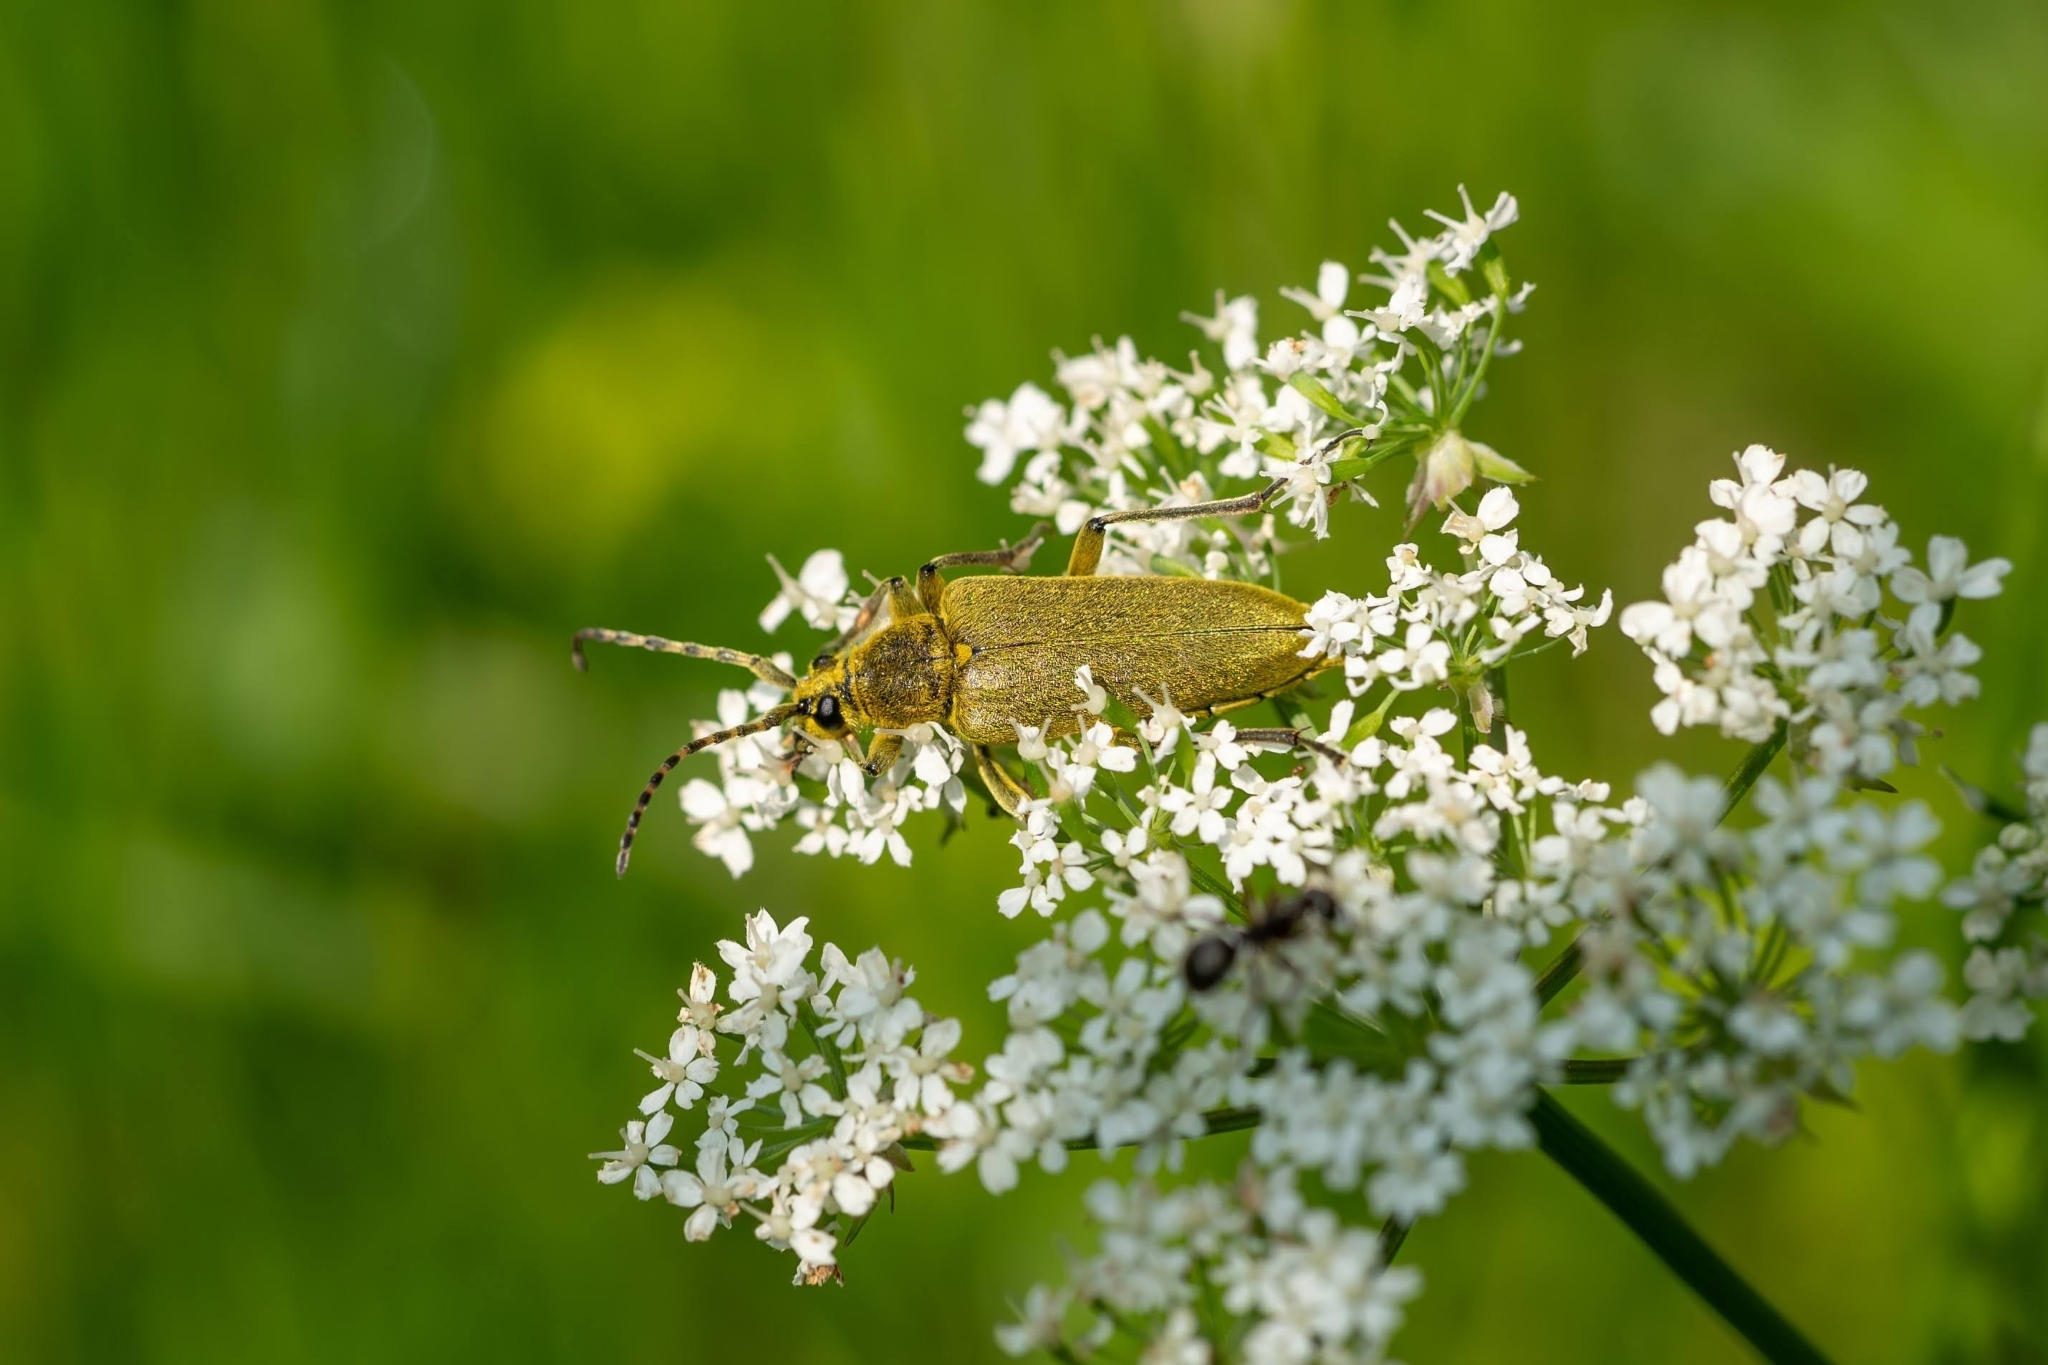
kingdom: Animalia
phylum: Arthropoda
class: Insecta
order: Coleoptera
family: Cerambycidae
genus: Lepturobosca
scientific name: Lepturobosca virens
